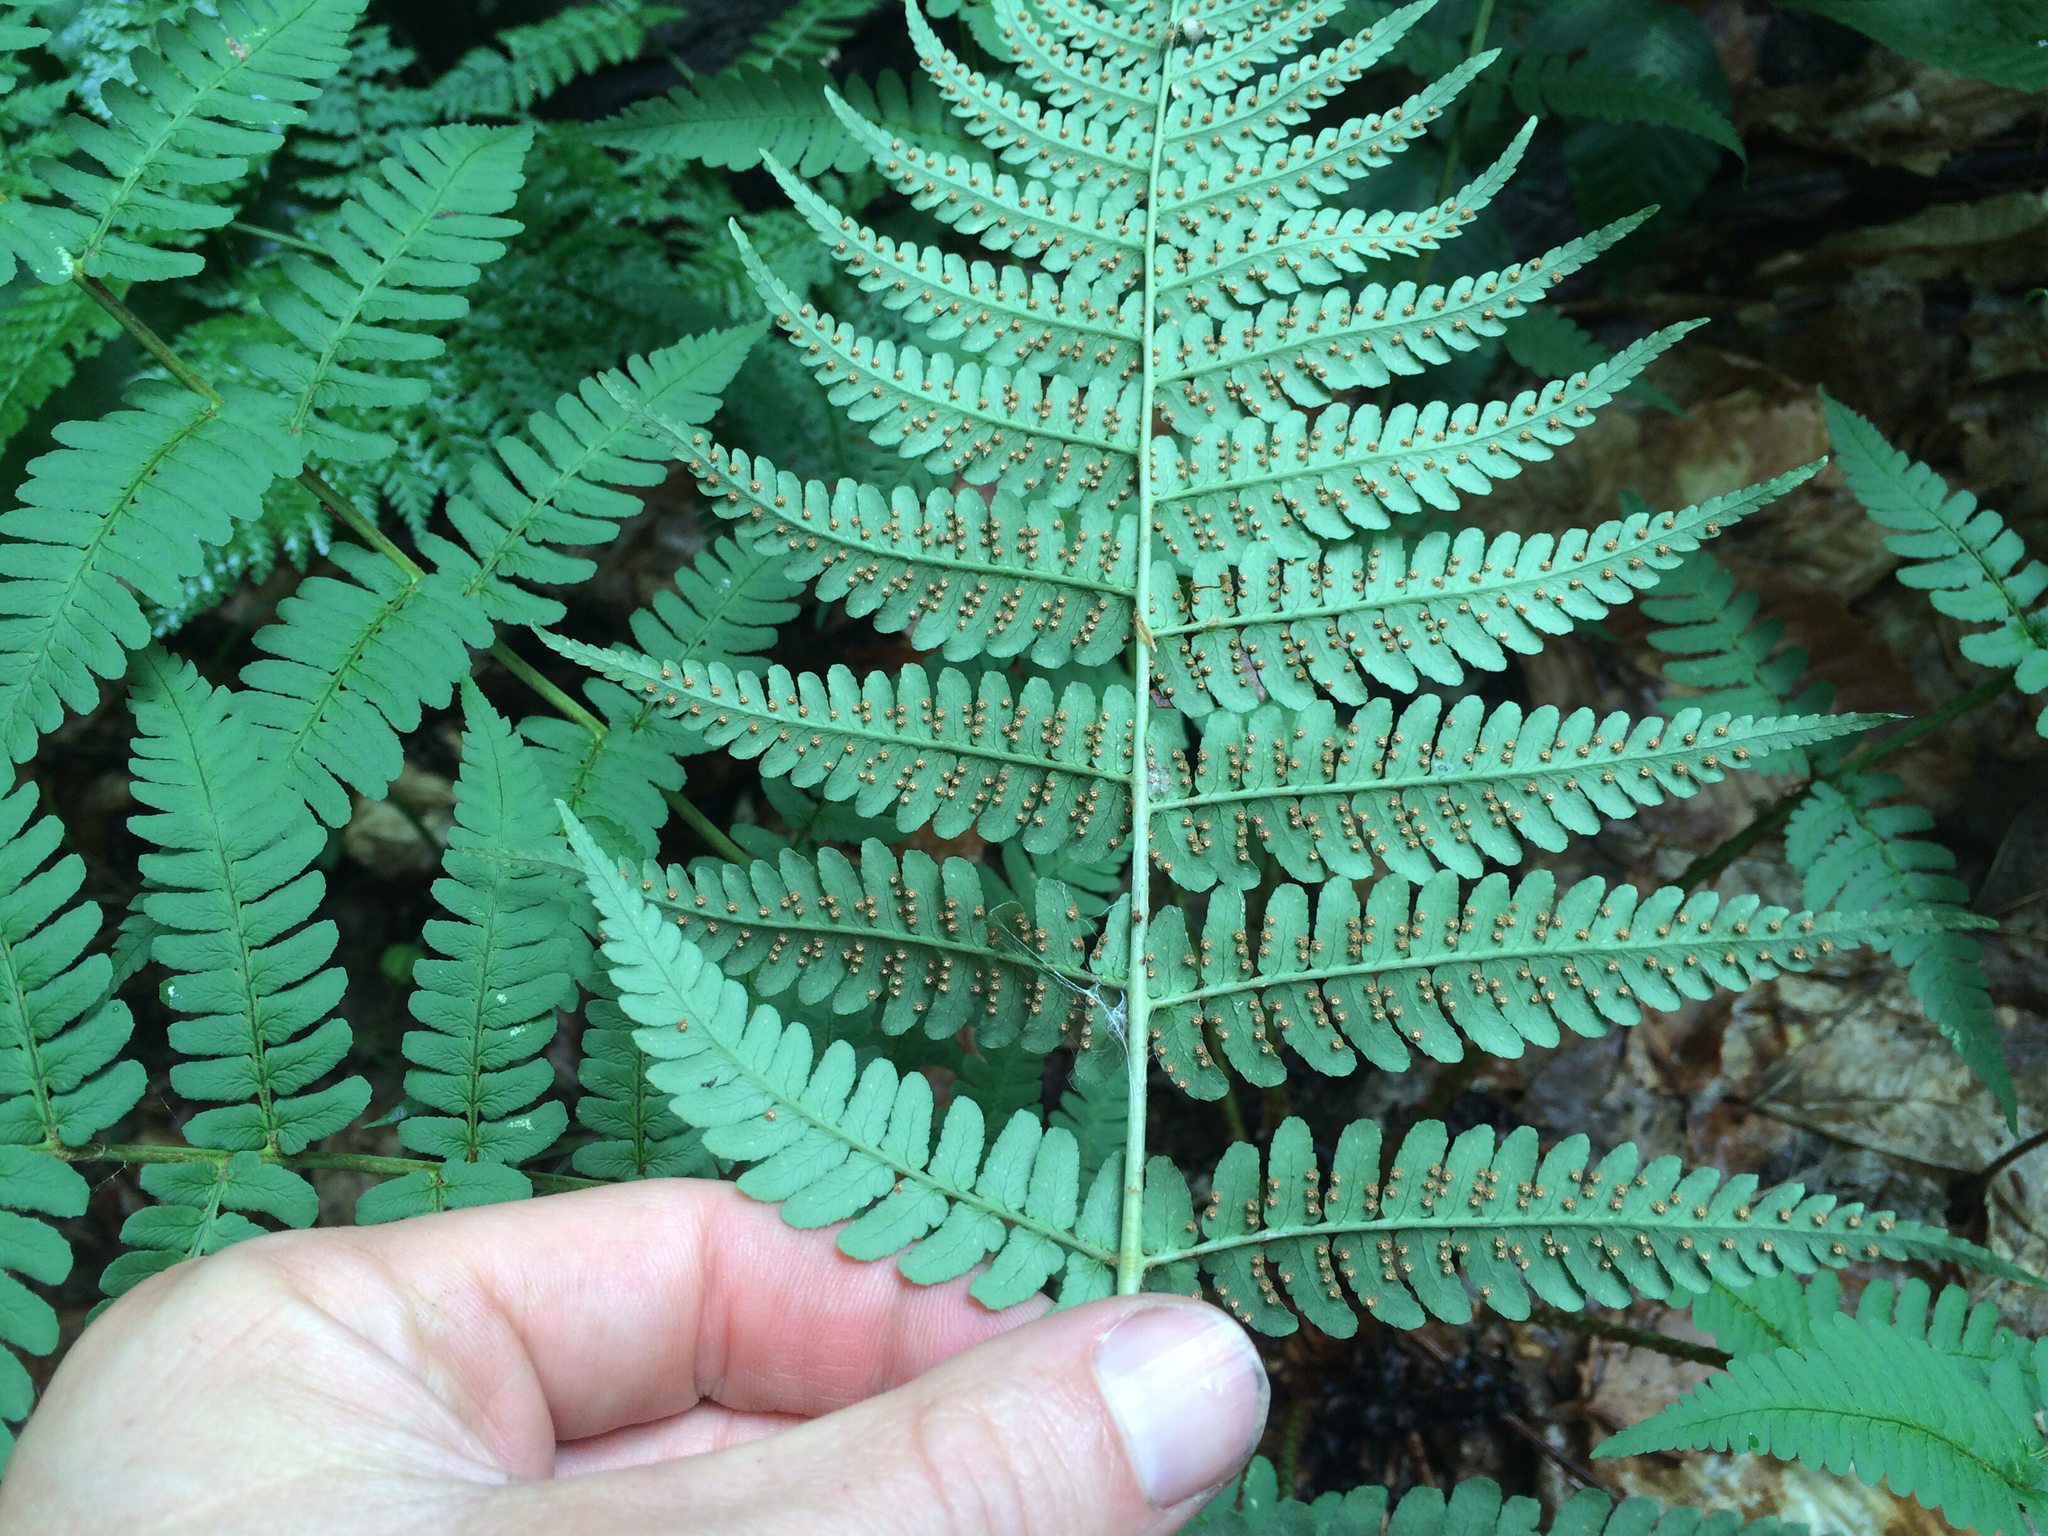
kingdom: Plantae
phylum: Tracheophyta
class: Polypodiopsida
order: Polypodiales
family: Dryopteridaceae
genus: Dryopteris
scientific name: Dryopteris marginalis
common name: Marginal wood fern
